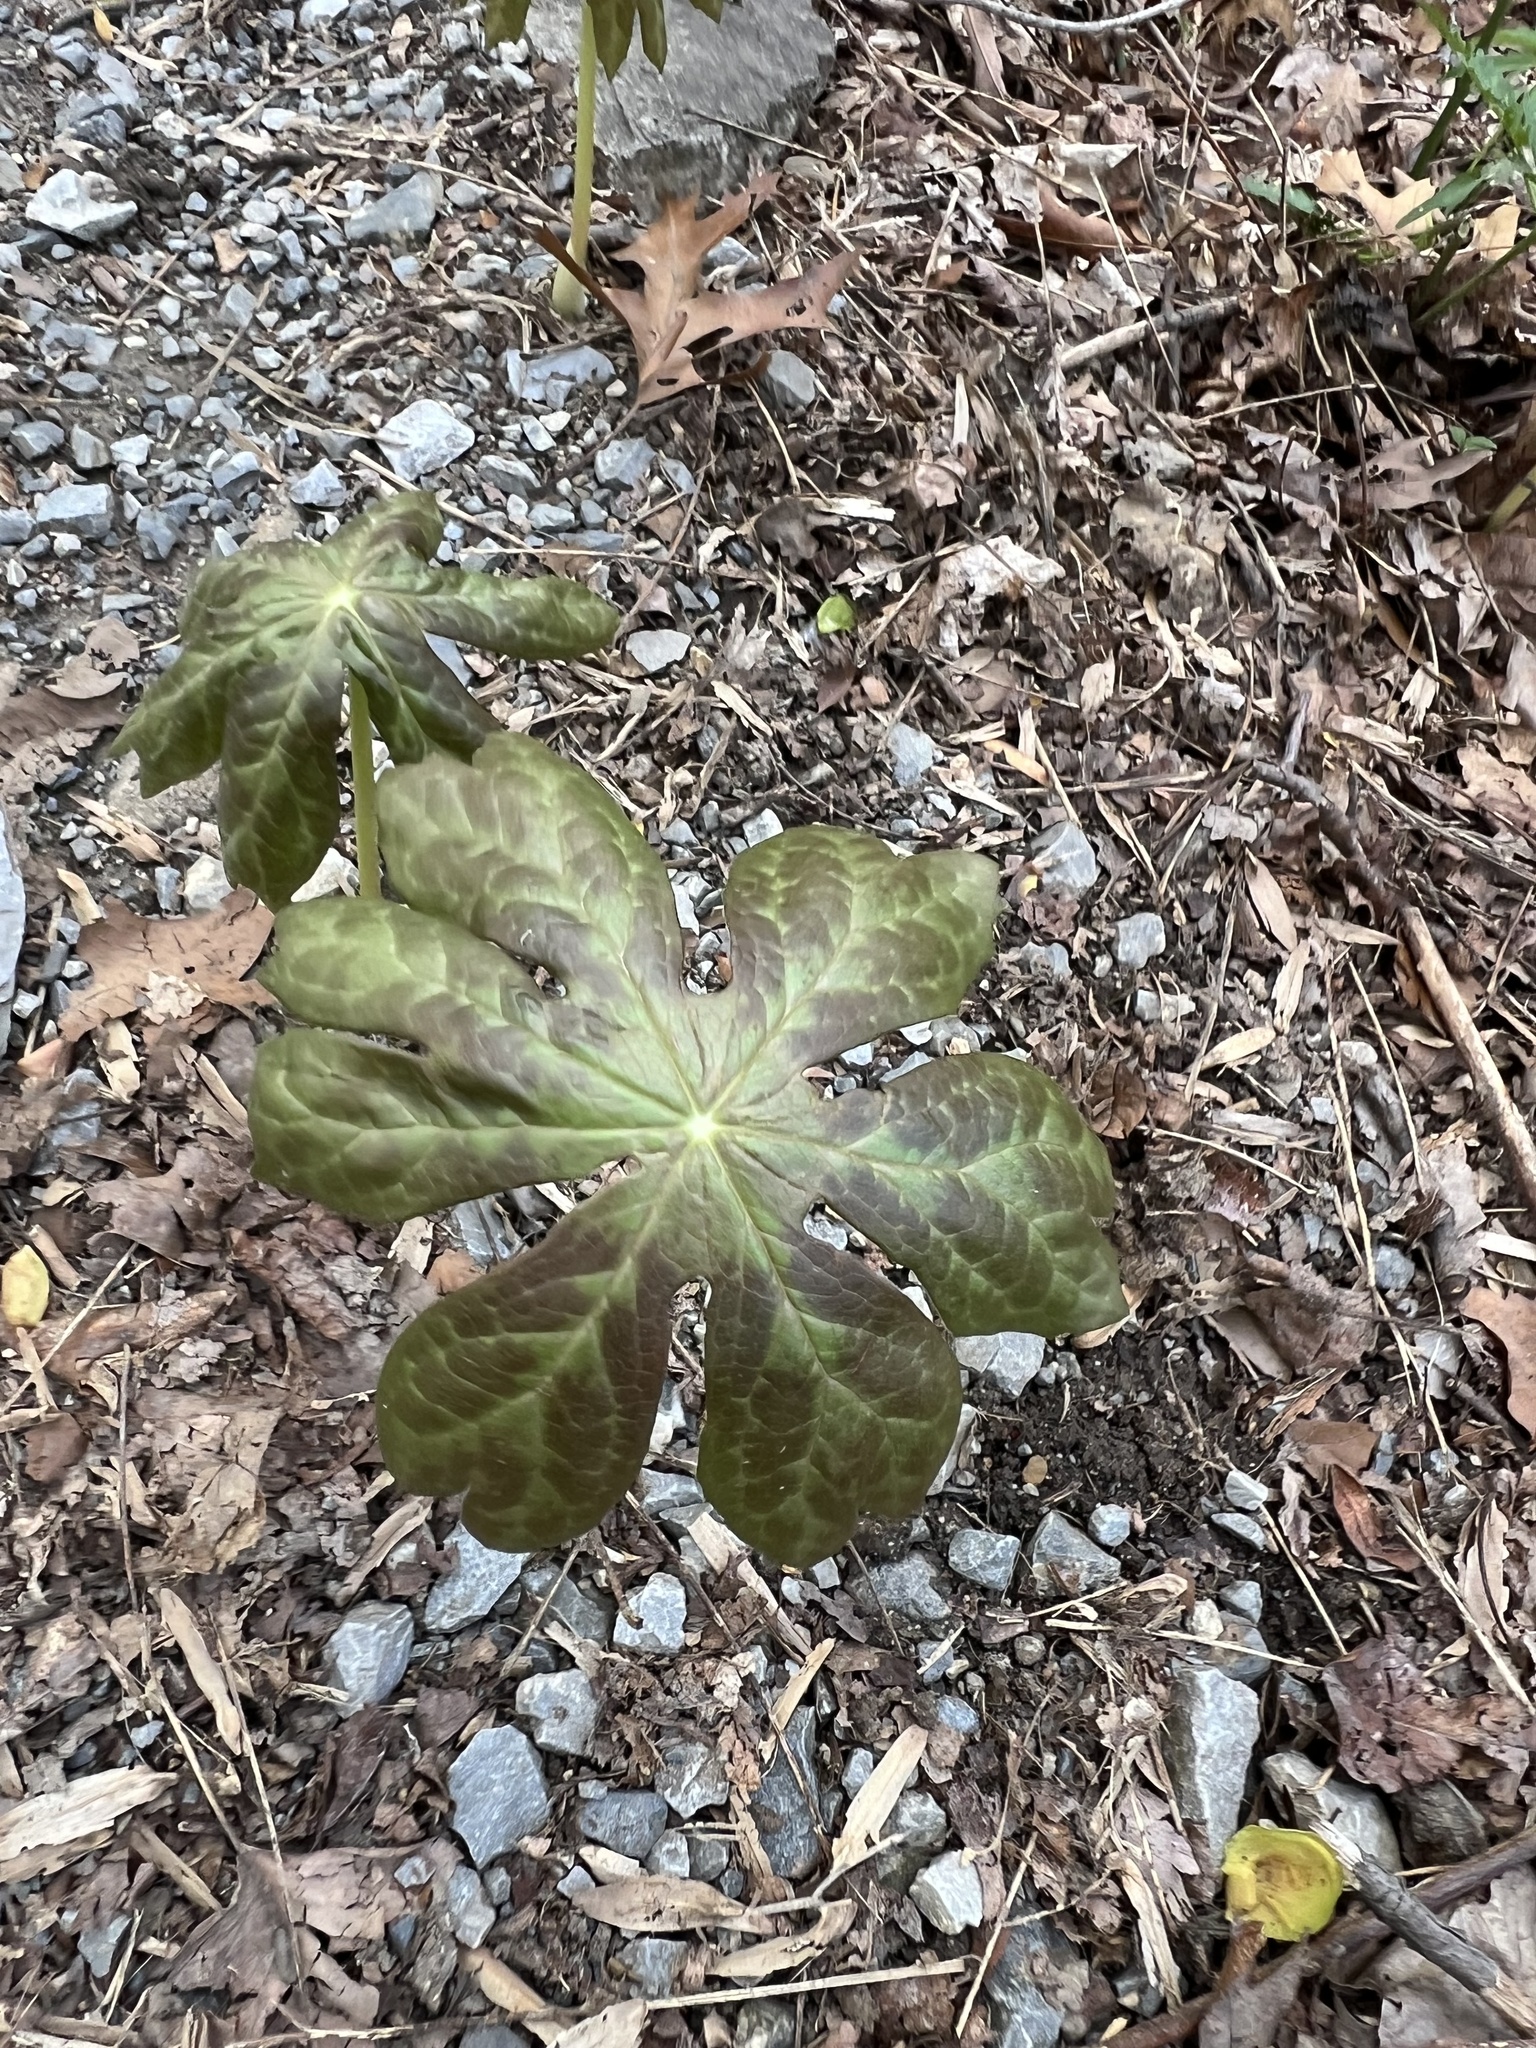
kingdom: Plantae
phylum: Tracheophyta
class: Magnoliopsida
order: Ranunculales
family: Berberidaceae
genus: Podophyllum
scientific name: Podophyllum peltatum
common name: Wild mandrake
